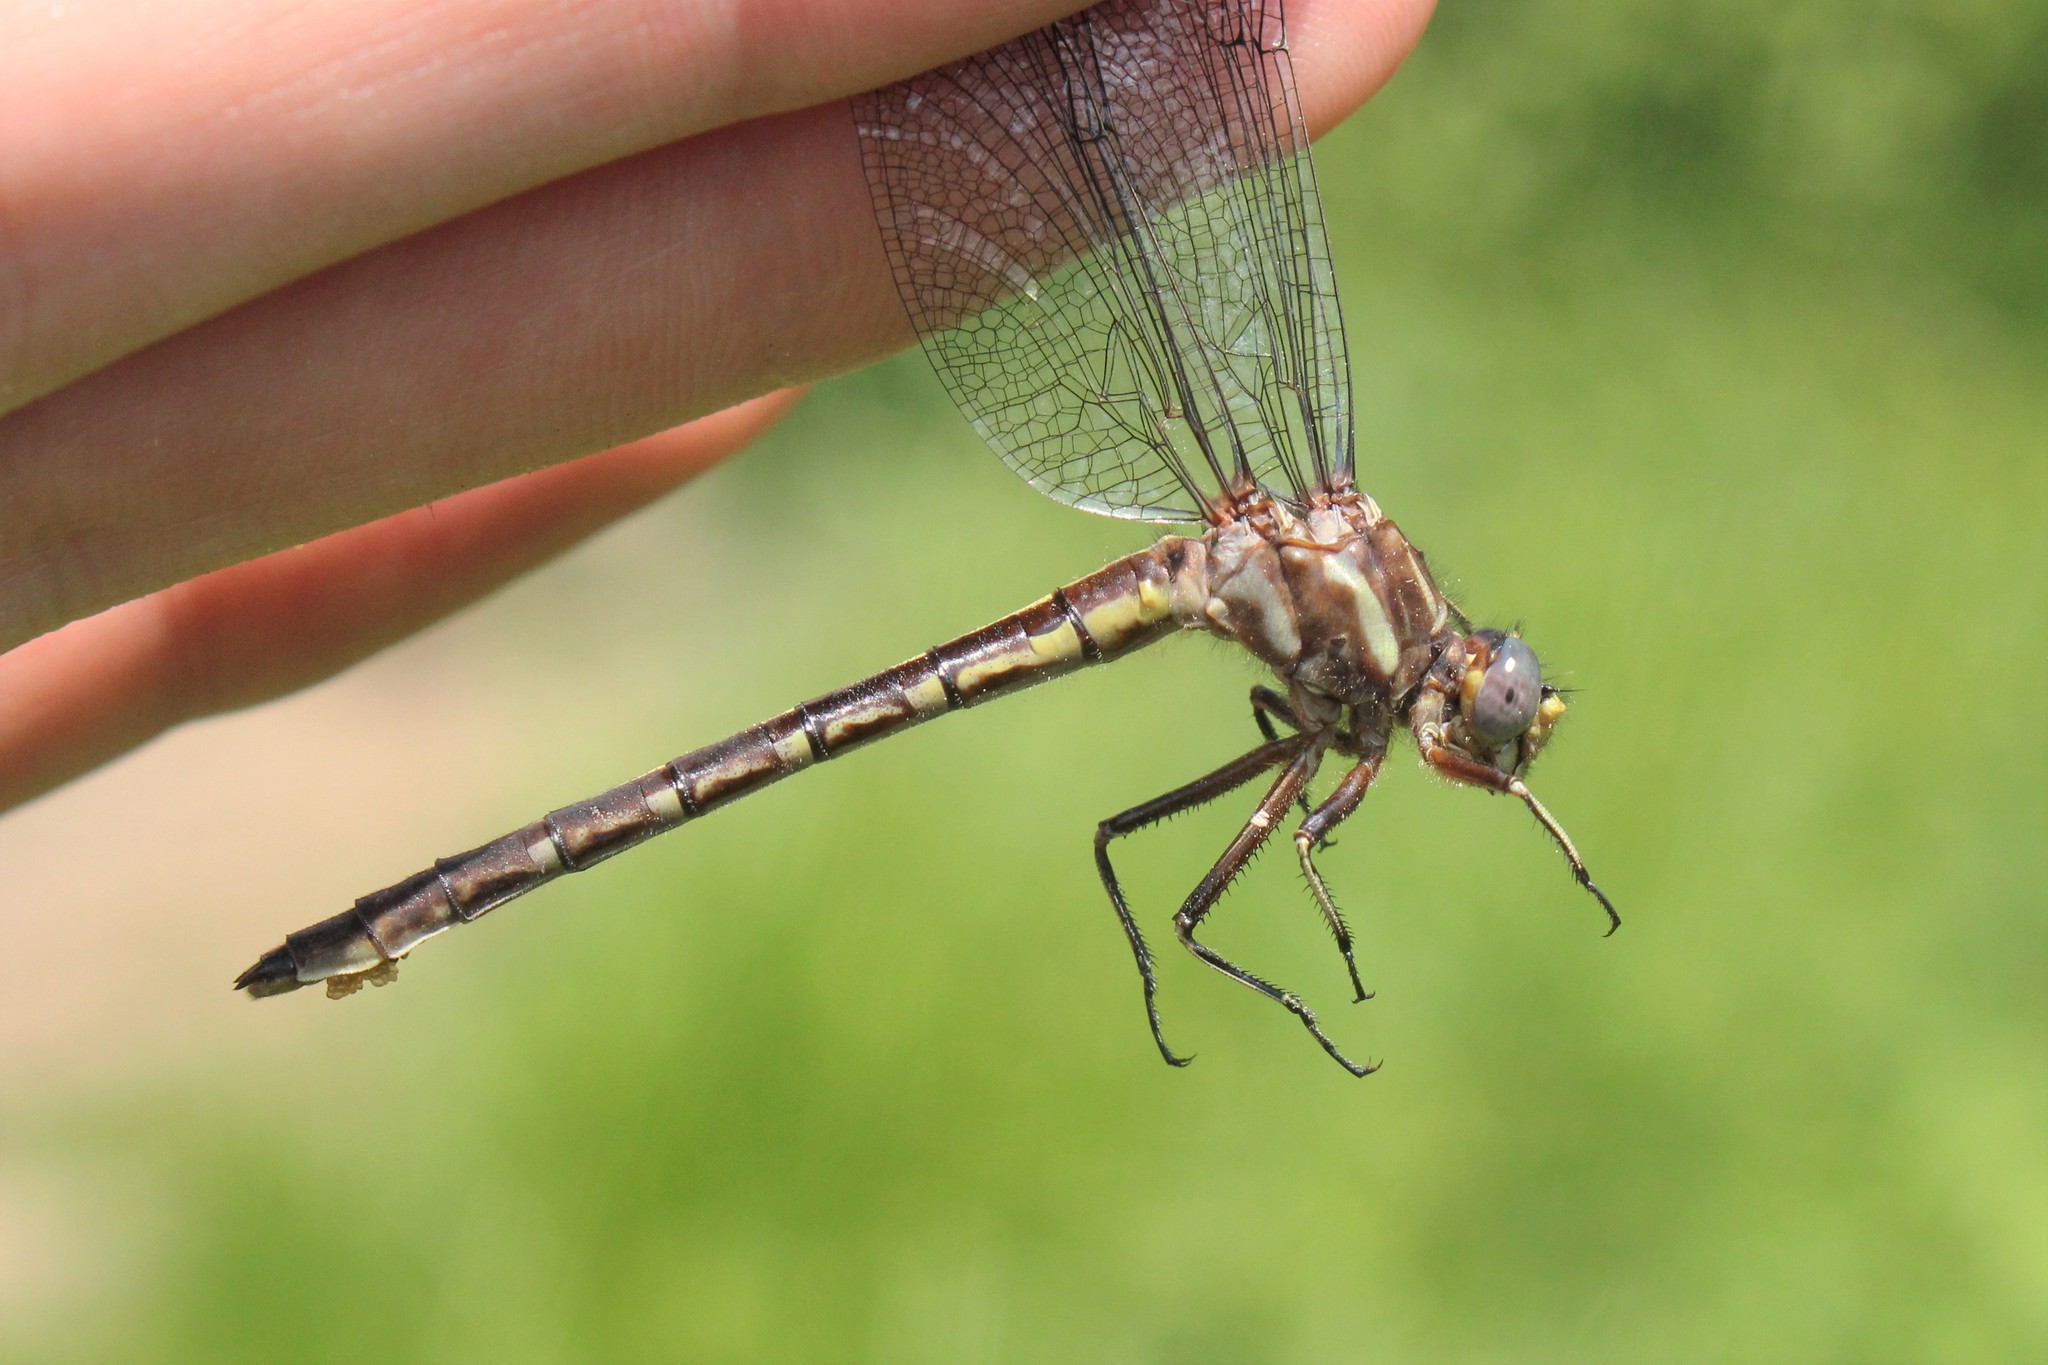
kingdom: Animalia
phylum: Arthropoda
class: Insecta
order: Odonata
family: Gomphidae
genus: Phanogomphus
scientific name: Phanogomphus lividus
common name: Ashy clubtail
